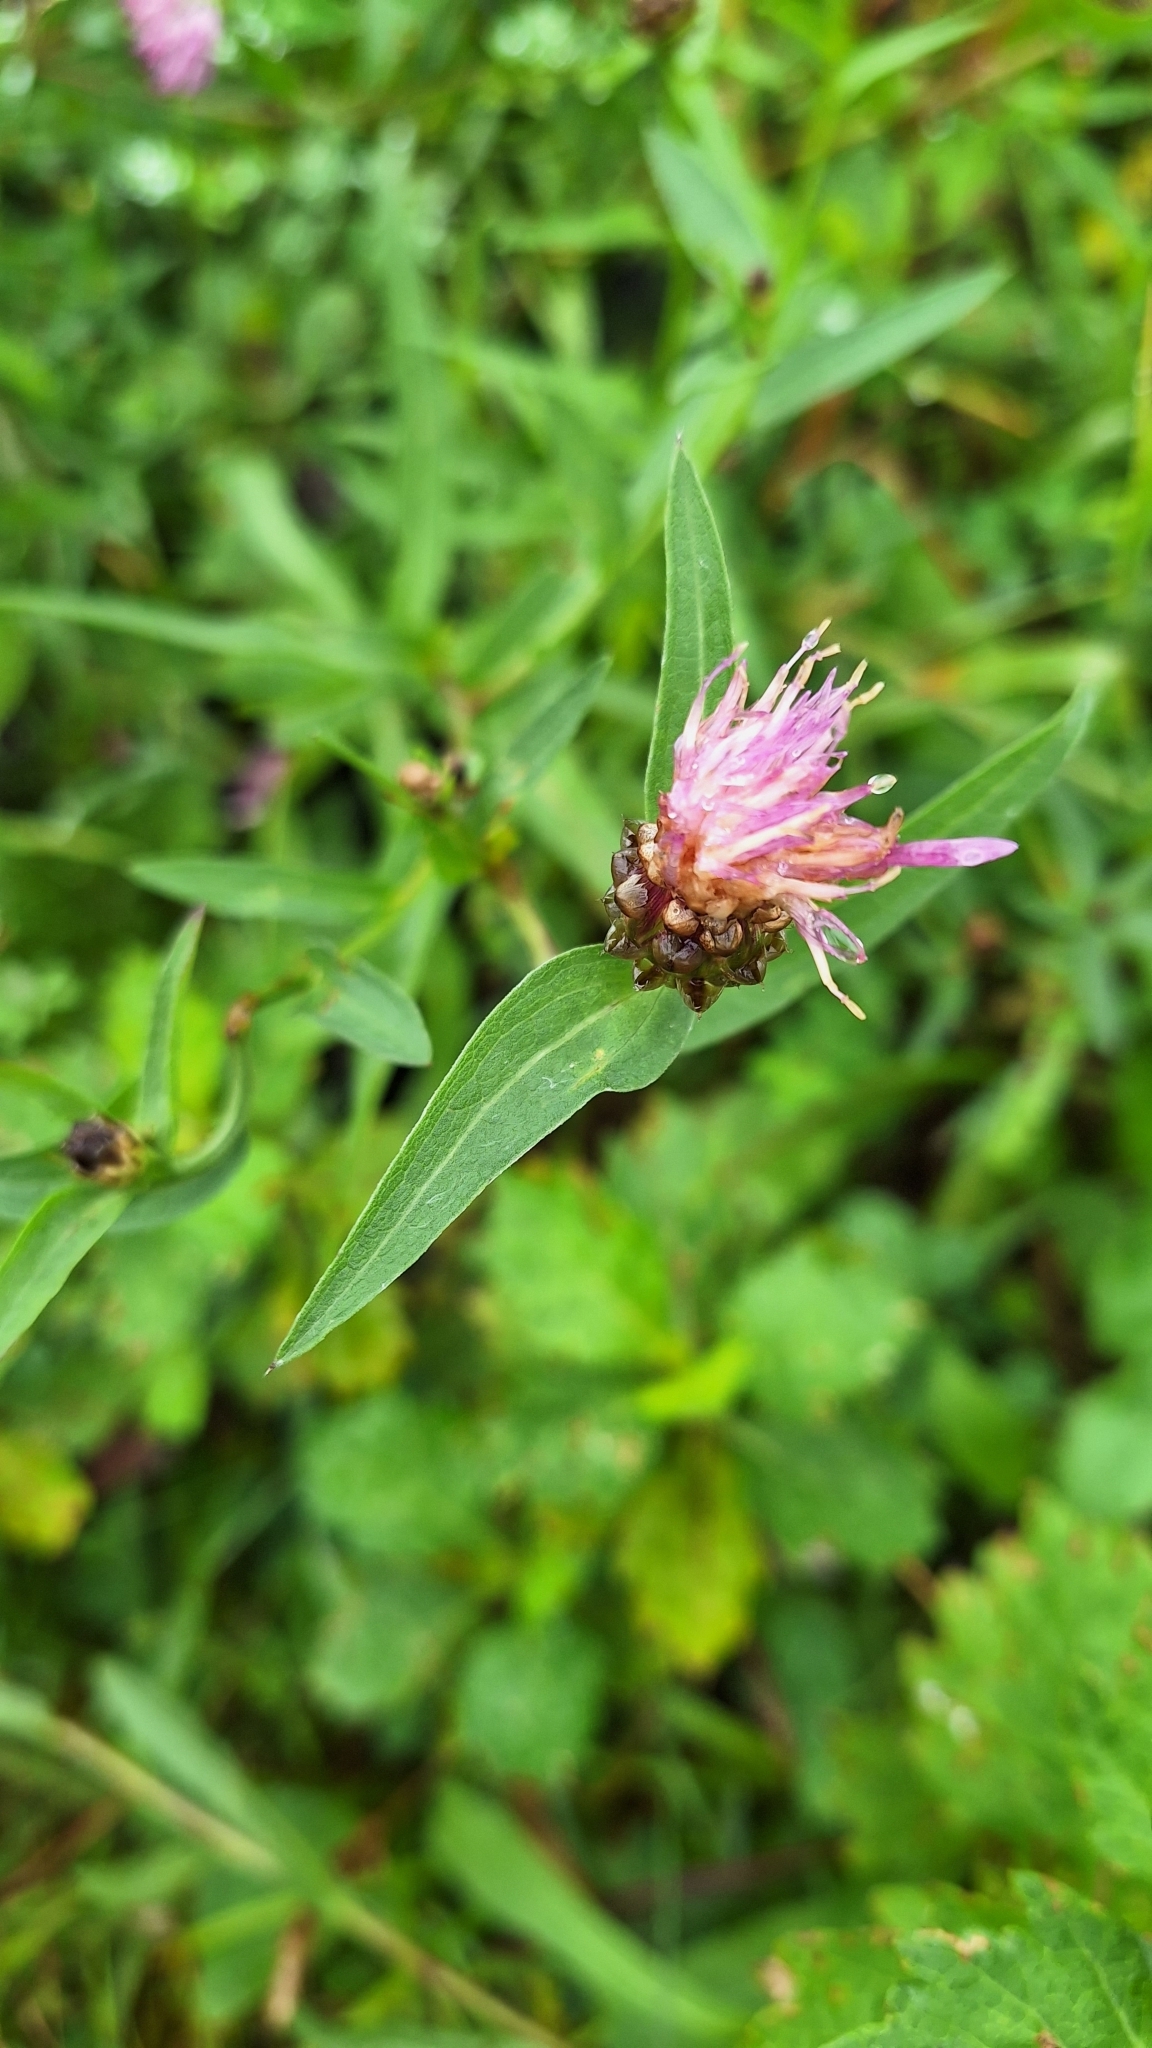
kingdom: Plantae
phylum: Tracheophyta
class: Magnoliopsida
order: Asterales
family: Asteraceae
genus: Centaurea
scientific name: Centaurea jacea
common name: Brown knapweed
